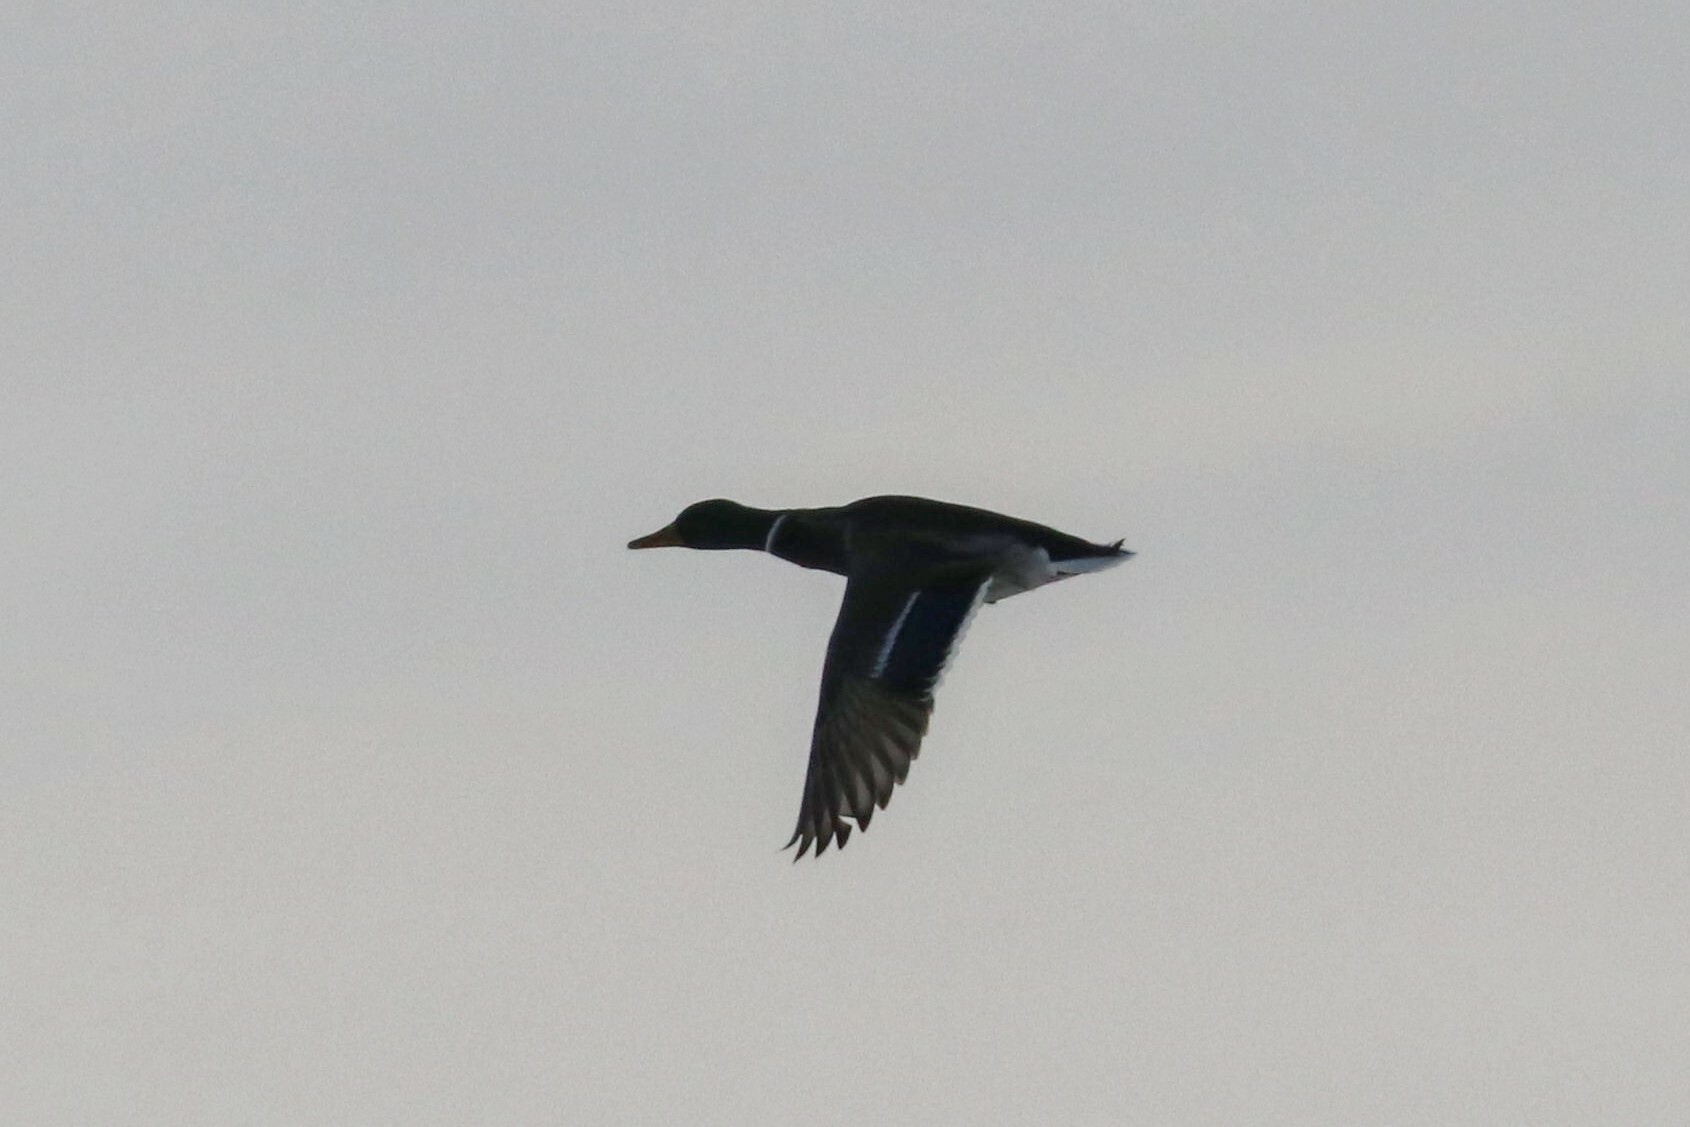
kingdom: Animalia
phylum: Chordata
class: Aves
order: Anseriformes
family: Anatidae
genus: Anas
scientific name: Anas platyrhynchos
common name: Mallard
